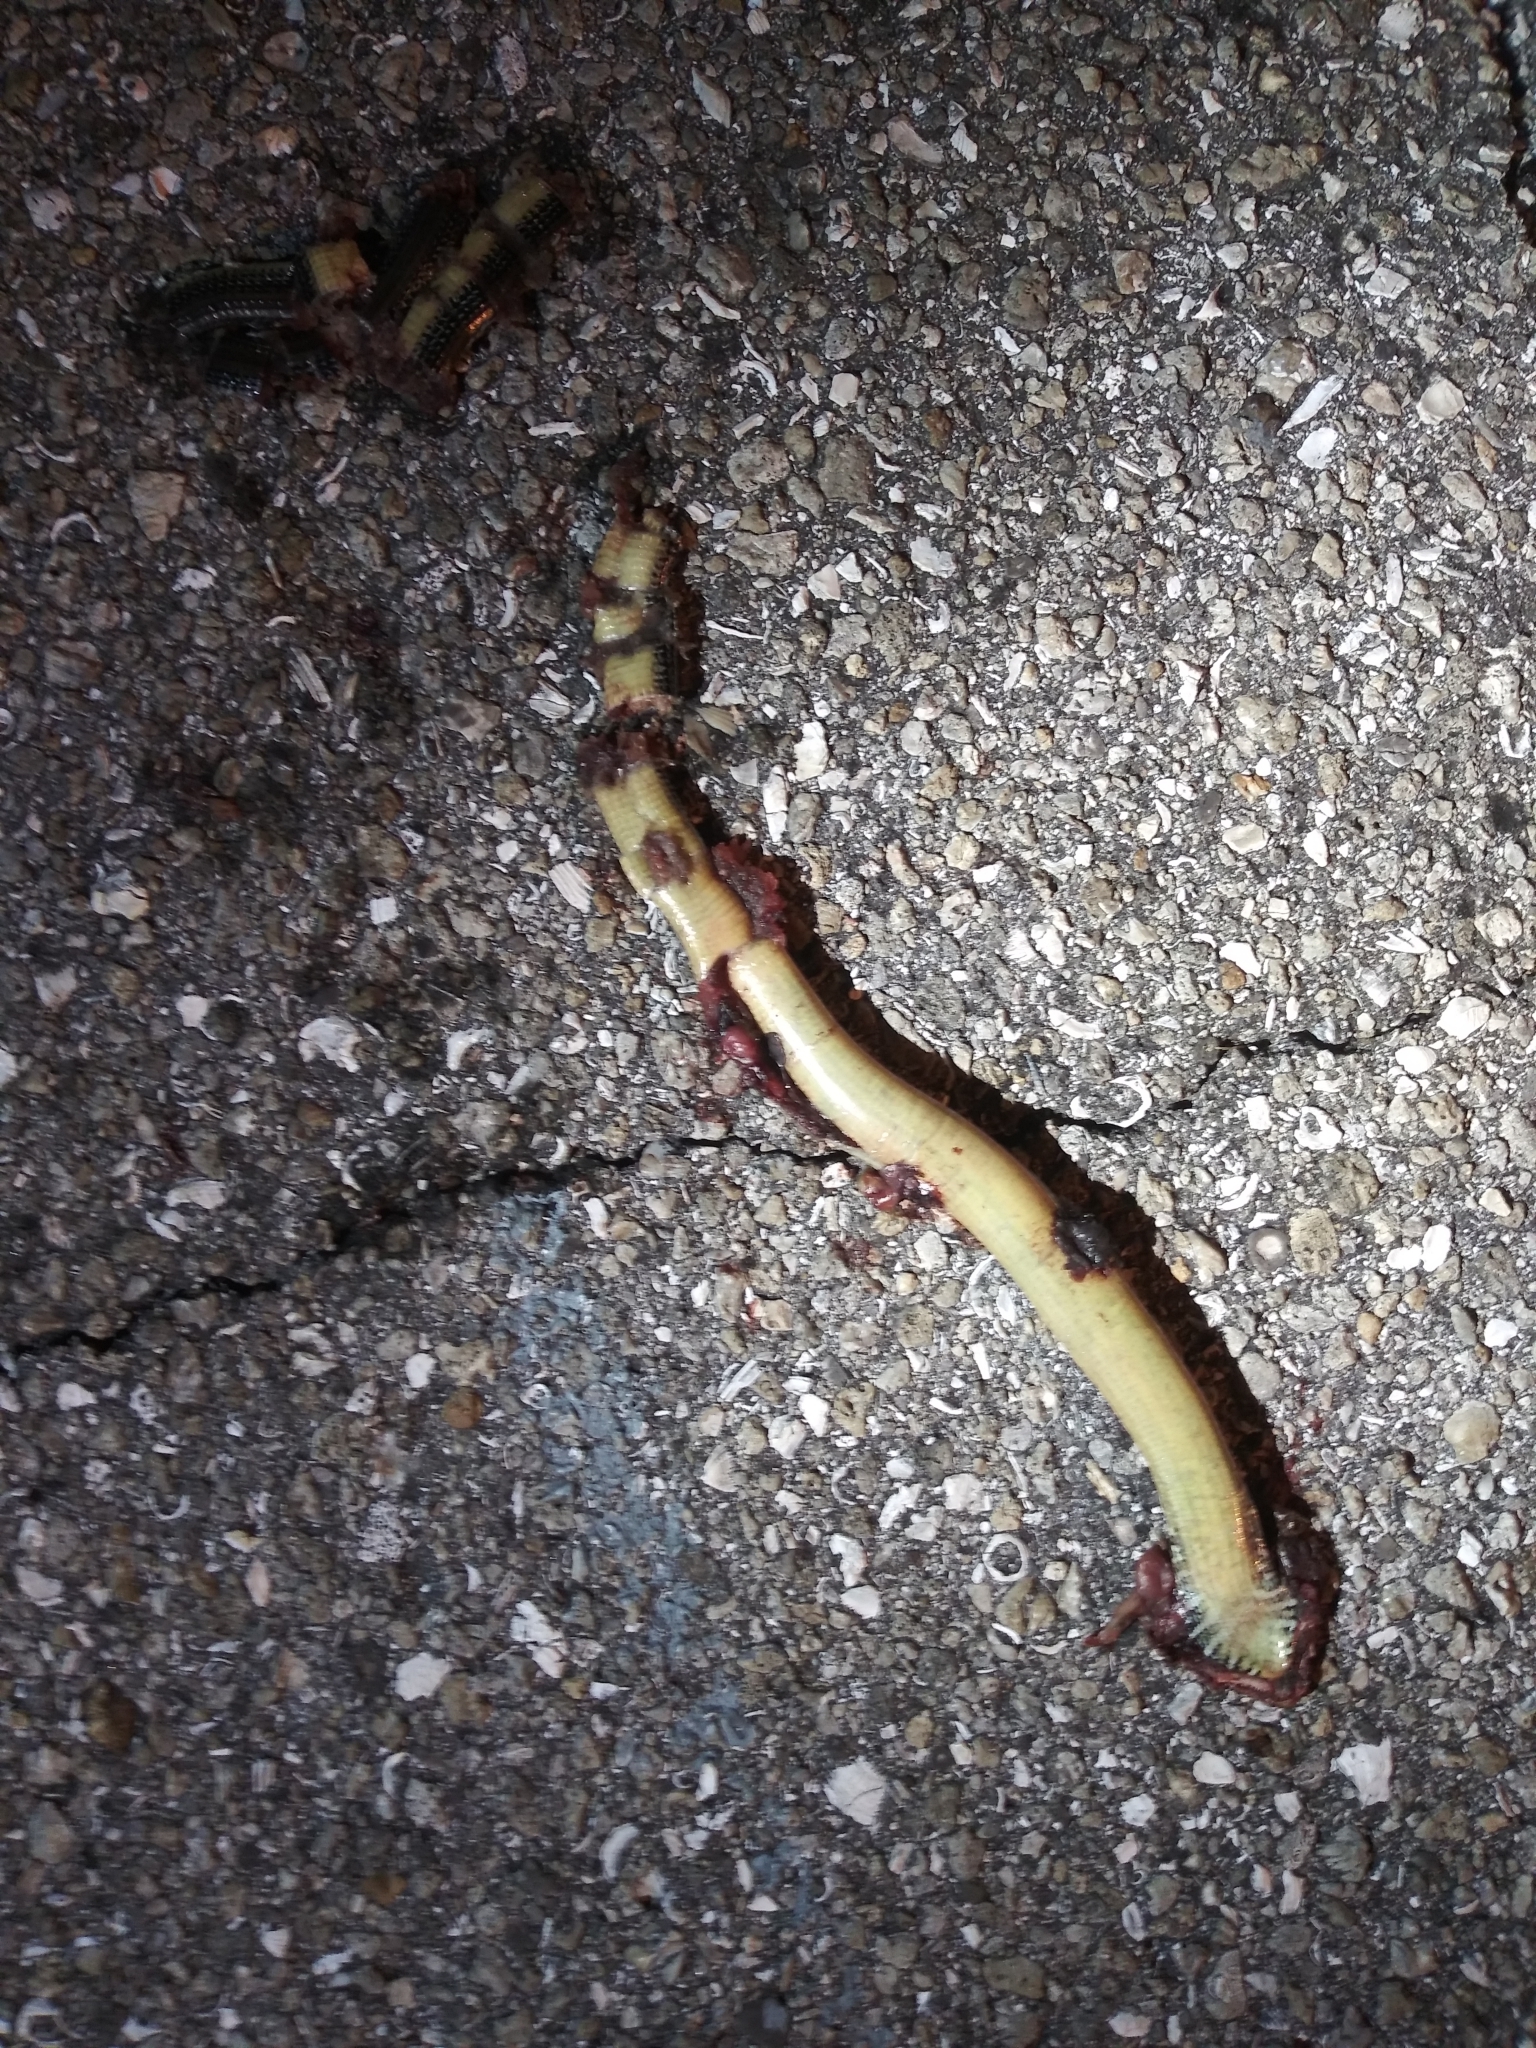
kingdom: Animalia
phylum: Chordata
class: Squamata
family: Anguidae
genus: Ophisaurus
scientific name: Ophisaurus ventralis
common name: Eastern glass lizard
